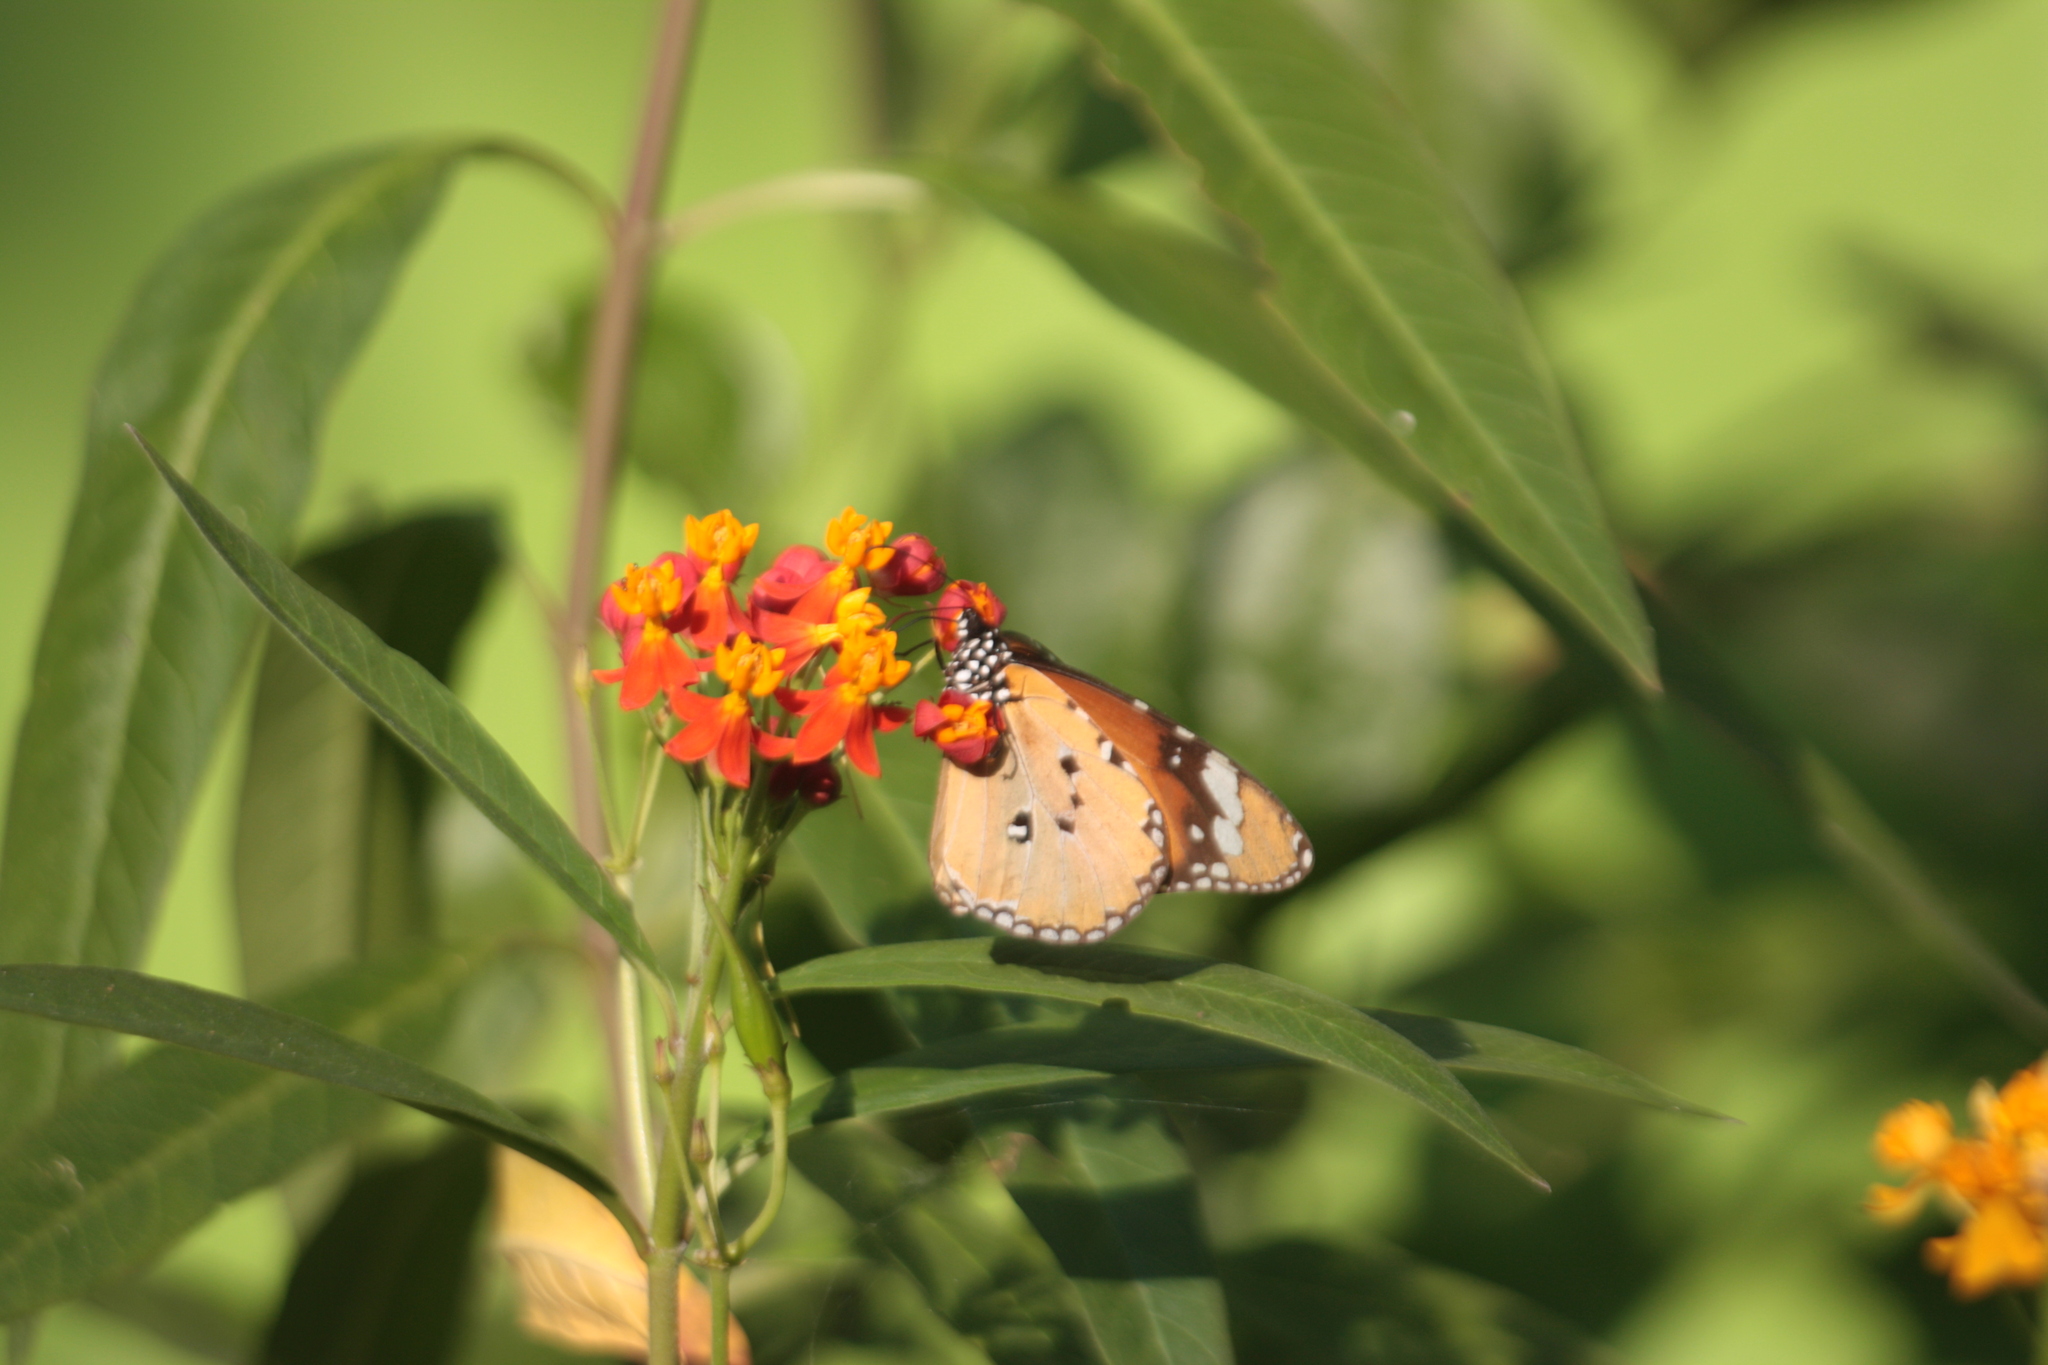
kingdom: Animalia
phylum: Arthropoda
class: Insecta
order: Lepidoptera
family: Nymphalidae
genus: Danaus
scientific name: Danaus chrysippus
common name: Plain tiger
